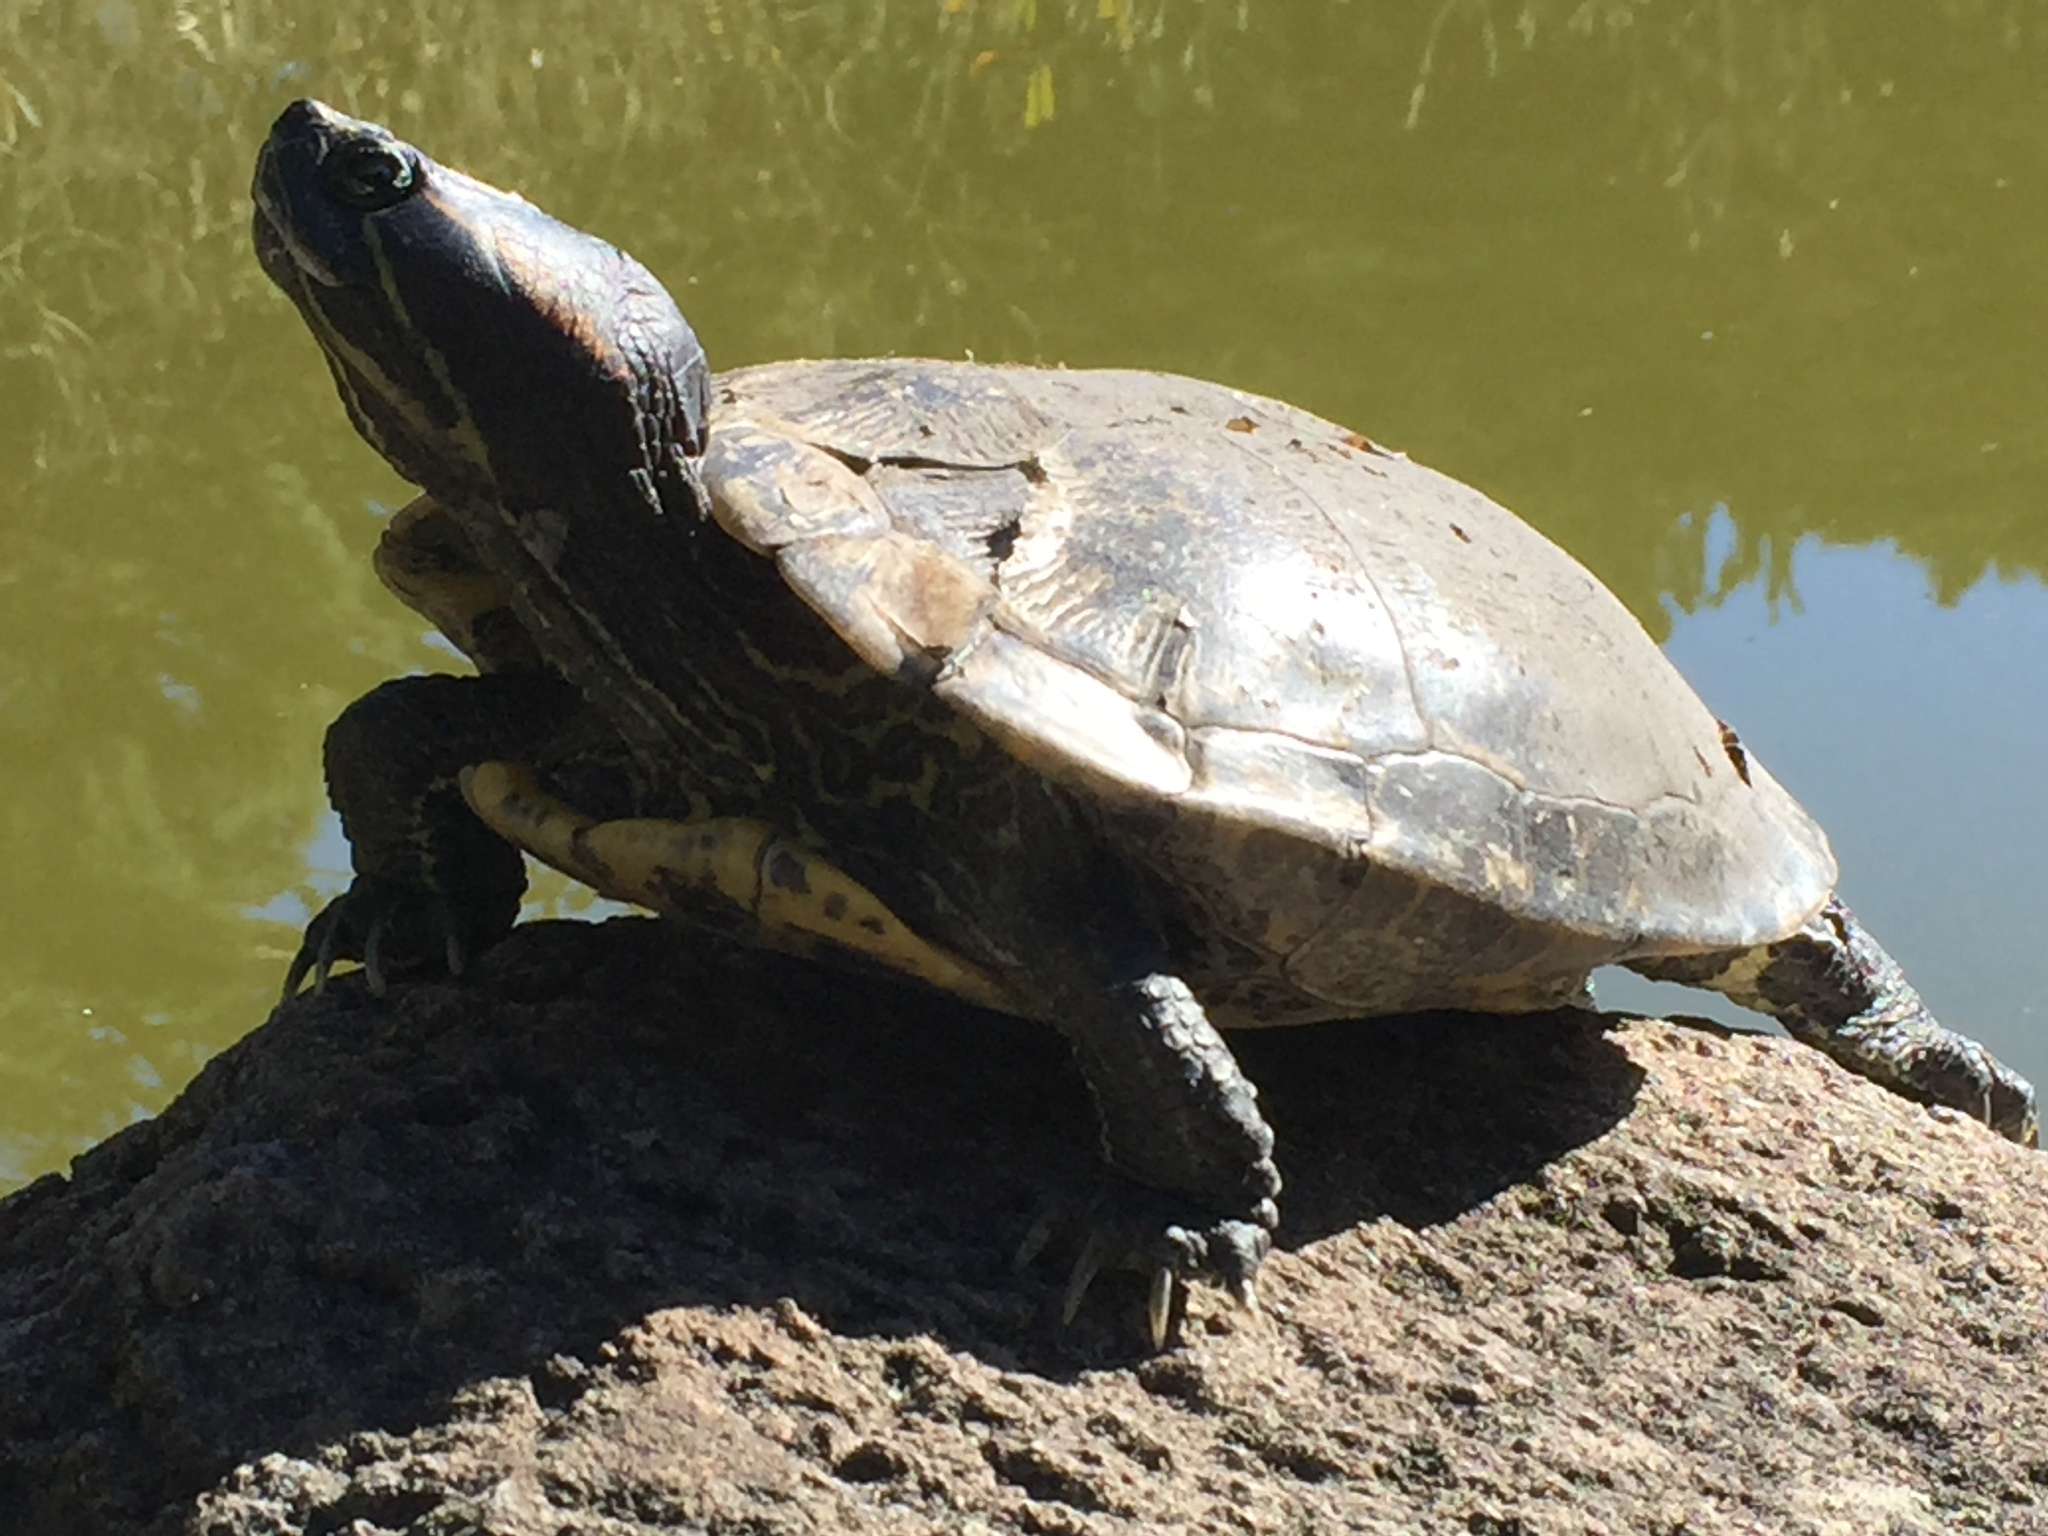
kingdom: Animalia
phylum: Chordata
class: Testudines
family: Emydidae
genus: Trachemys
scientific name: Trachemys scripta
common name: Slider
